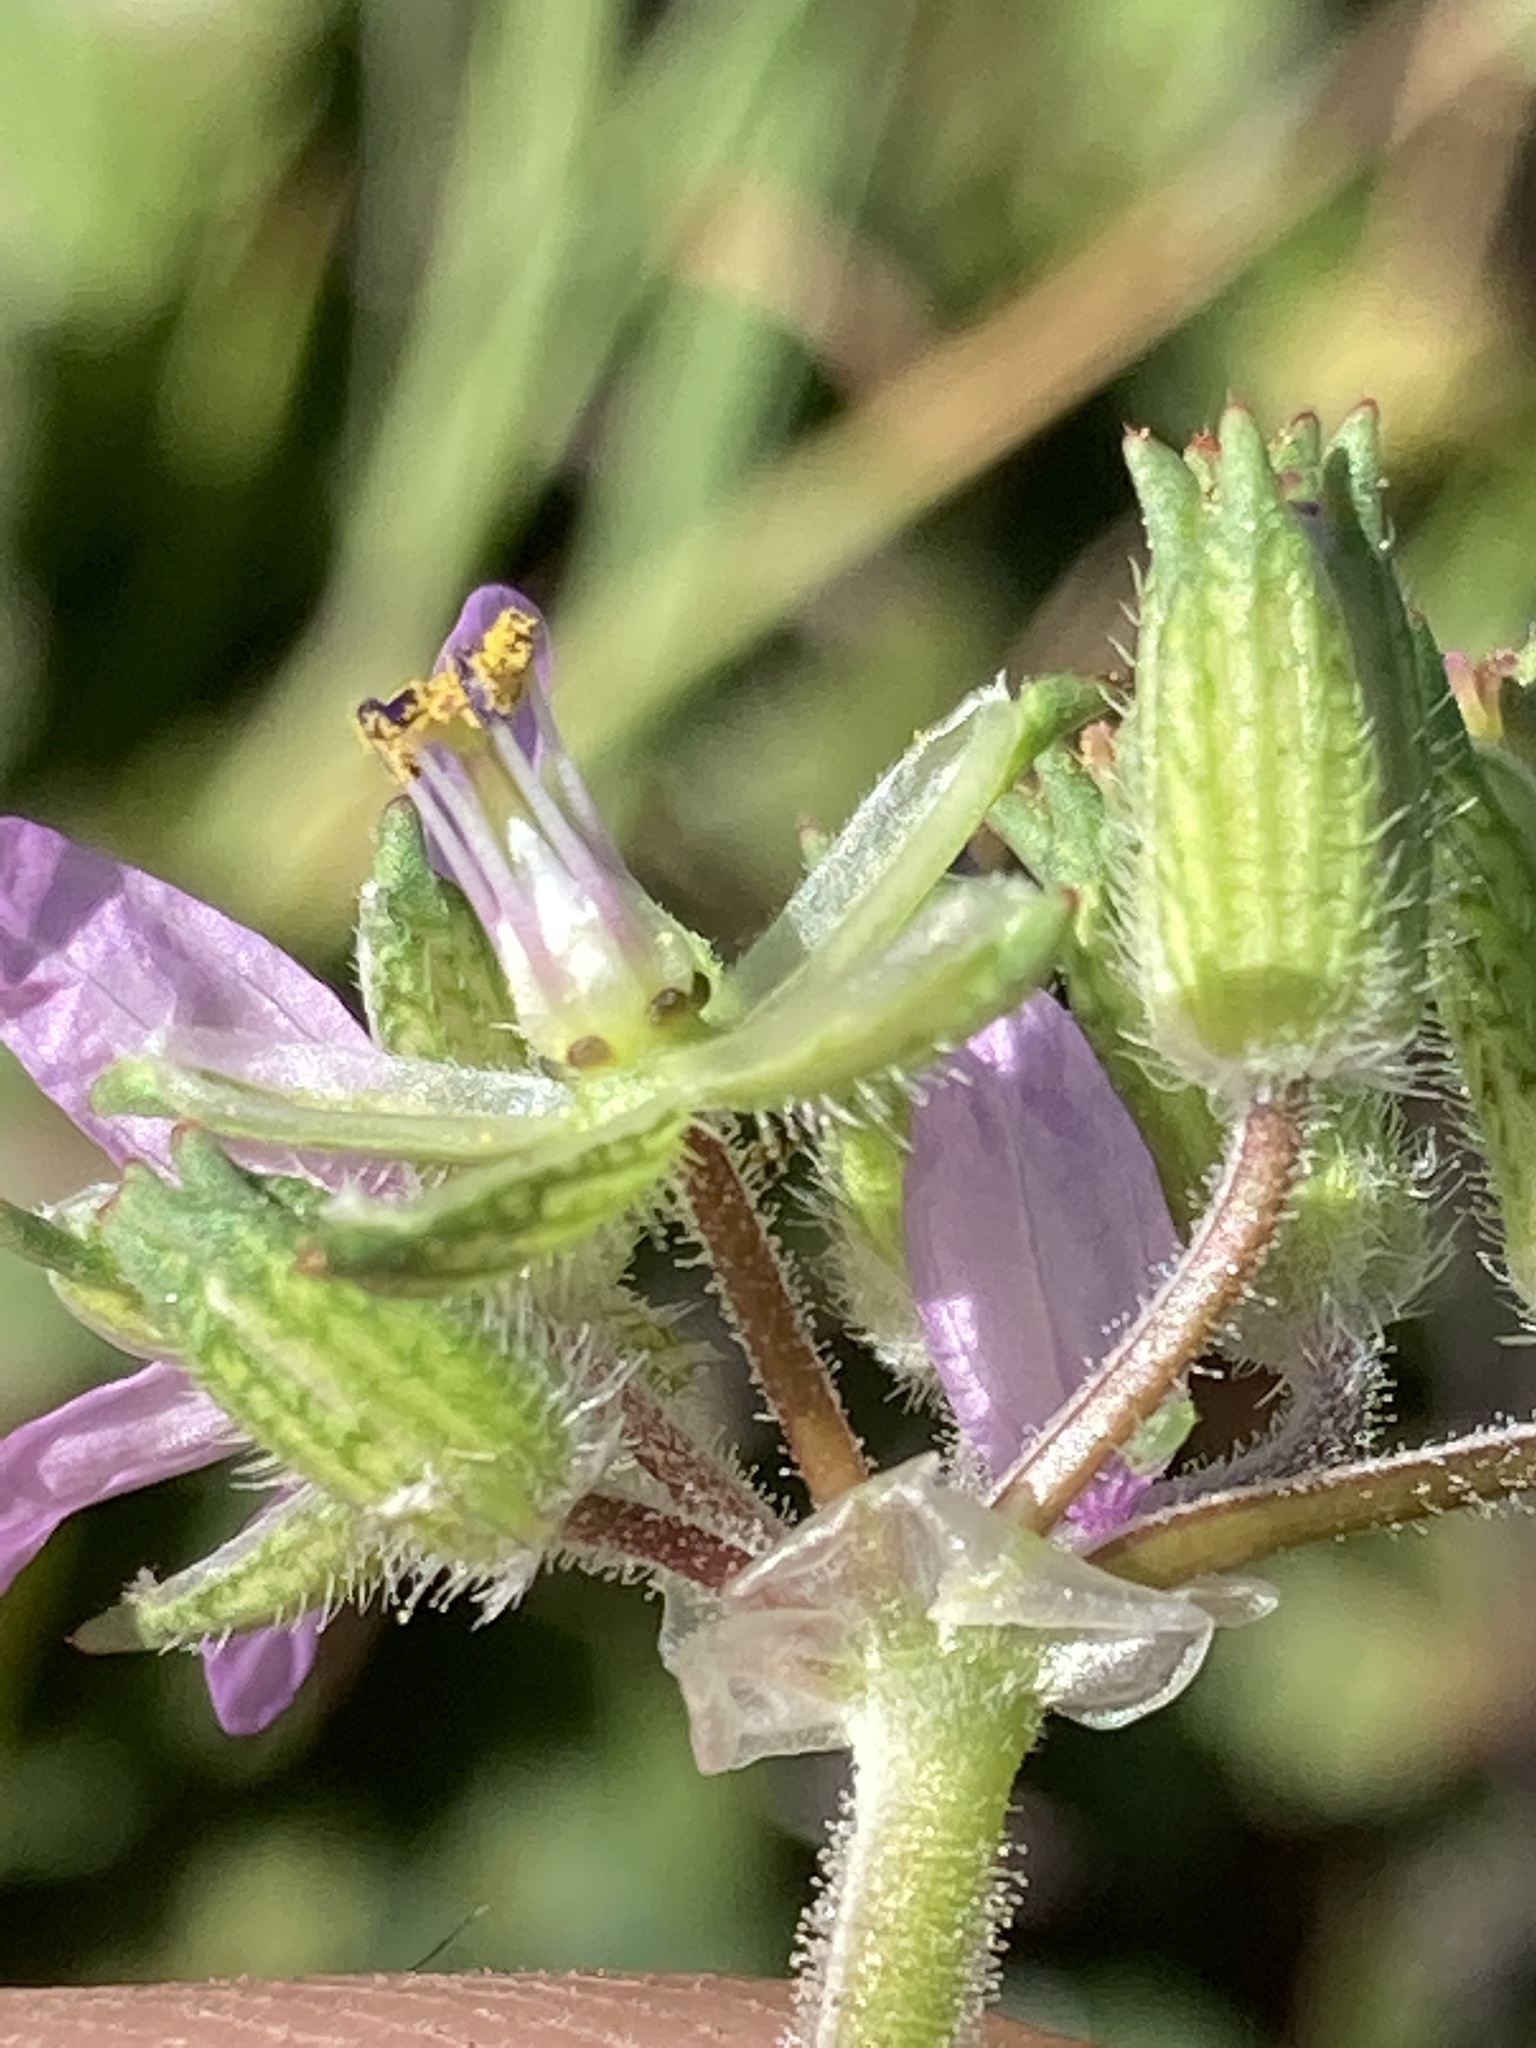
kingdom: Plantae
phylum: Tracheophyta
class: Magnoliopsida
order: Geraniales
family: Geraniaceae
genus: Erodium
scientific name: Erodium moschatum
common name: Musk stork's-bill
